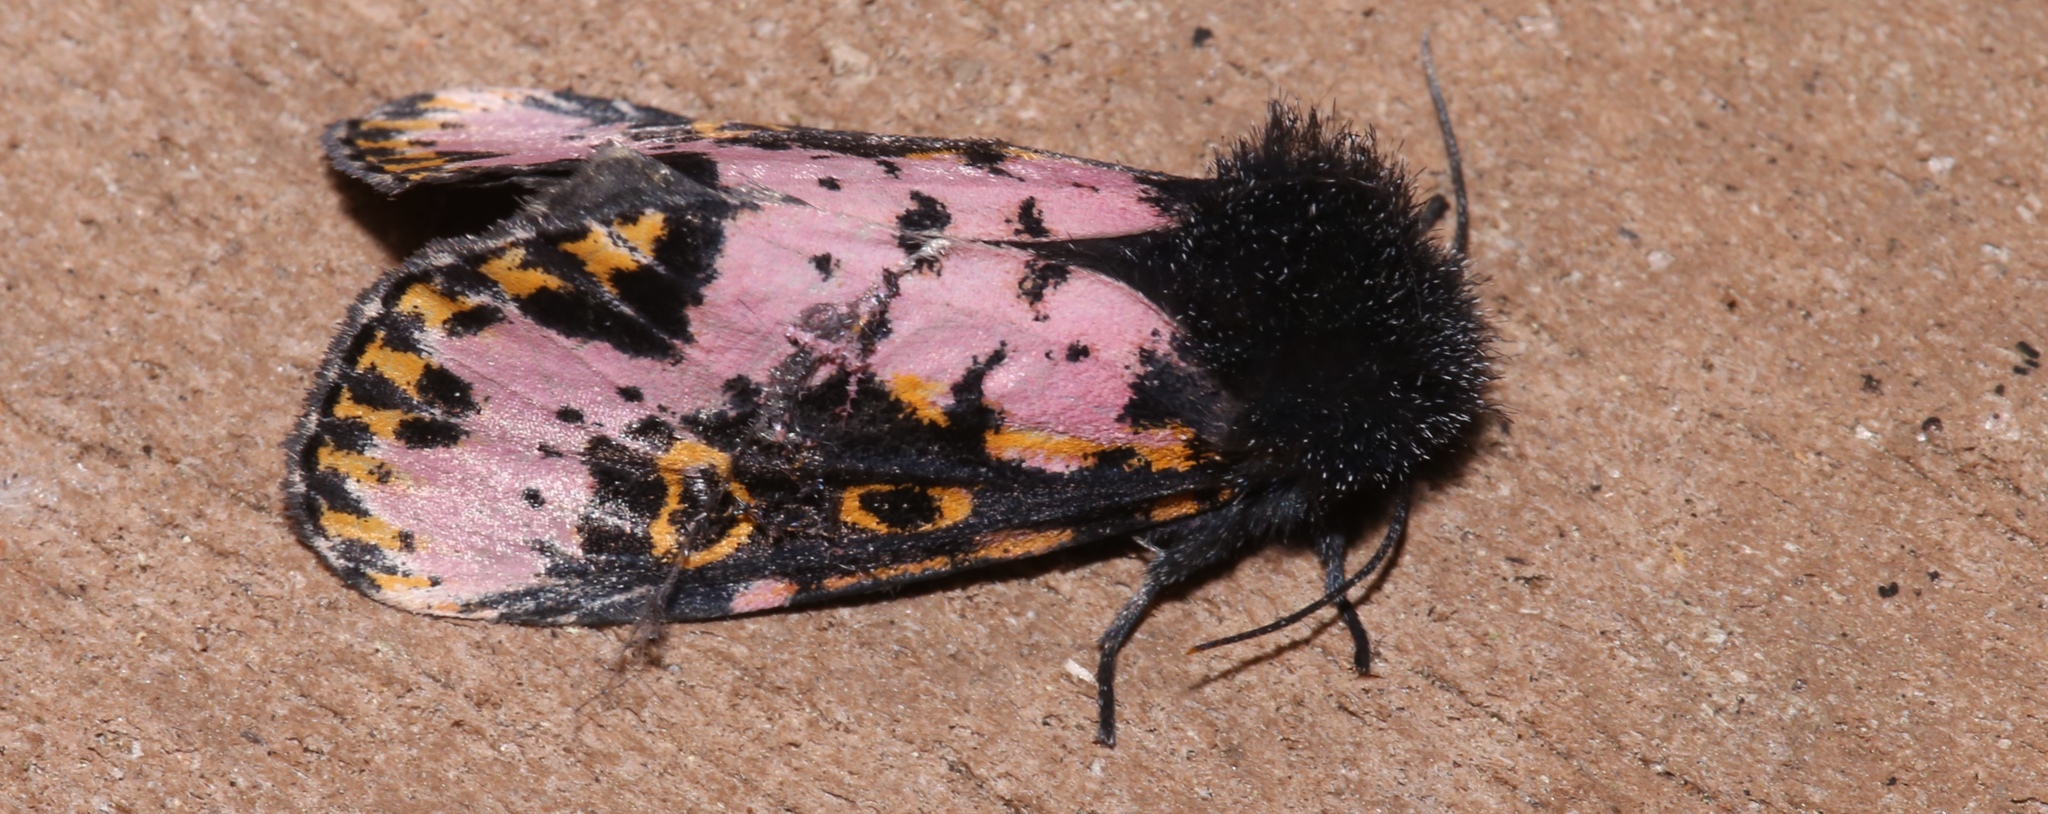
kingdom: Animalia
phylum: Arthropoda
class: Insecta
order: Lepidoptera
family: Noctuidae
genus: Xanthopastis
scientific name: Xanthopastis regnatrix
